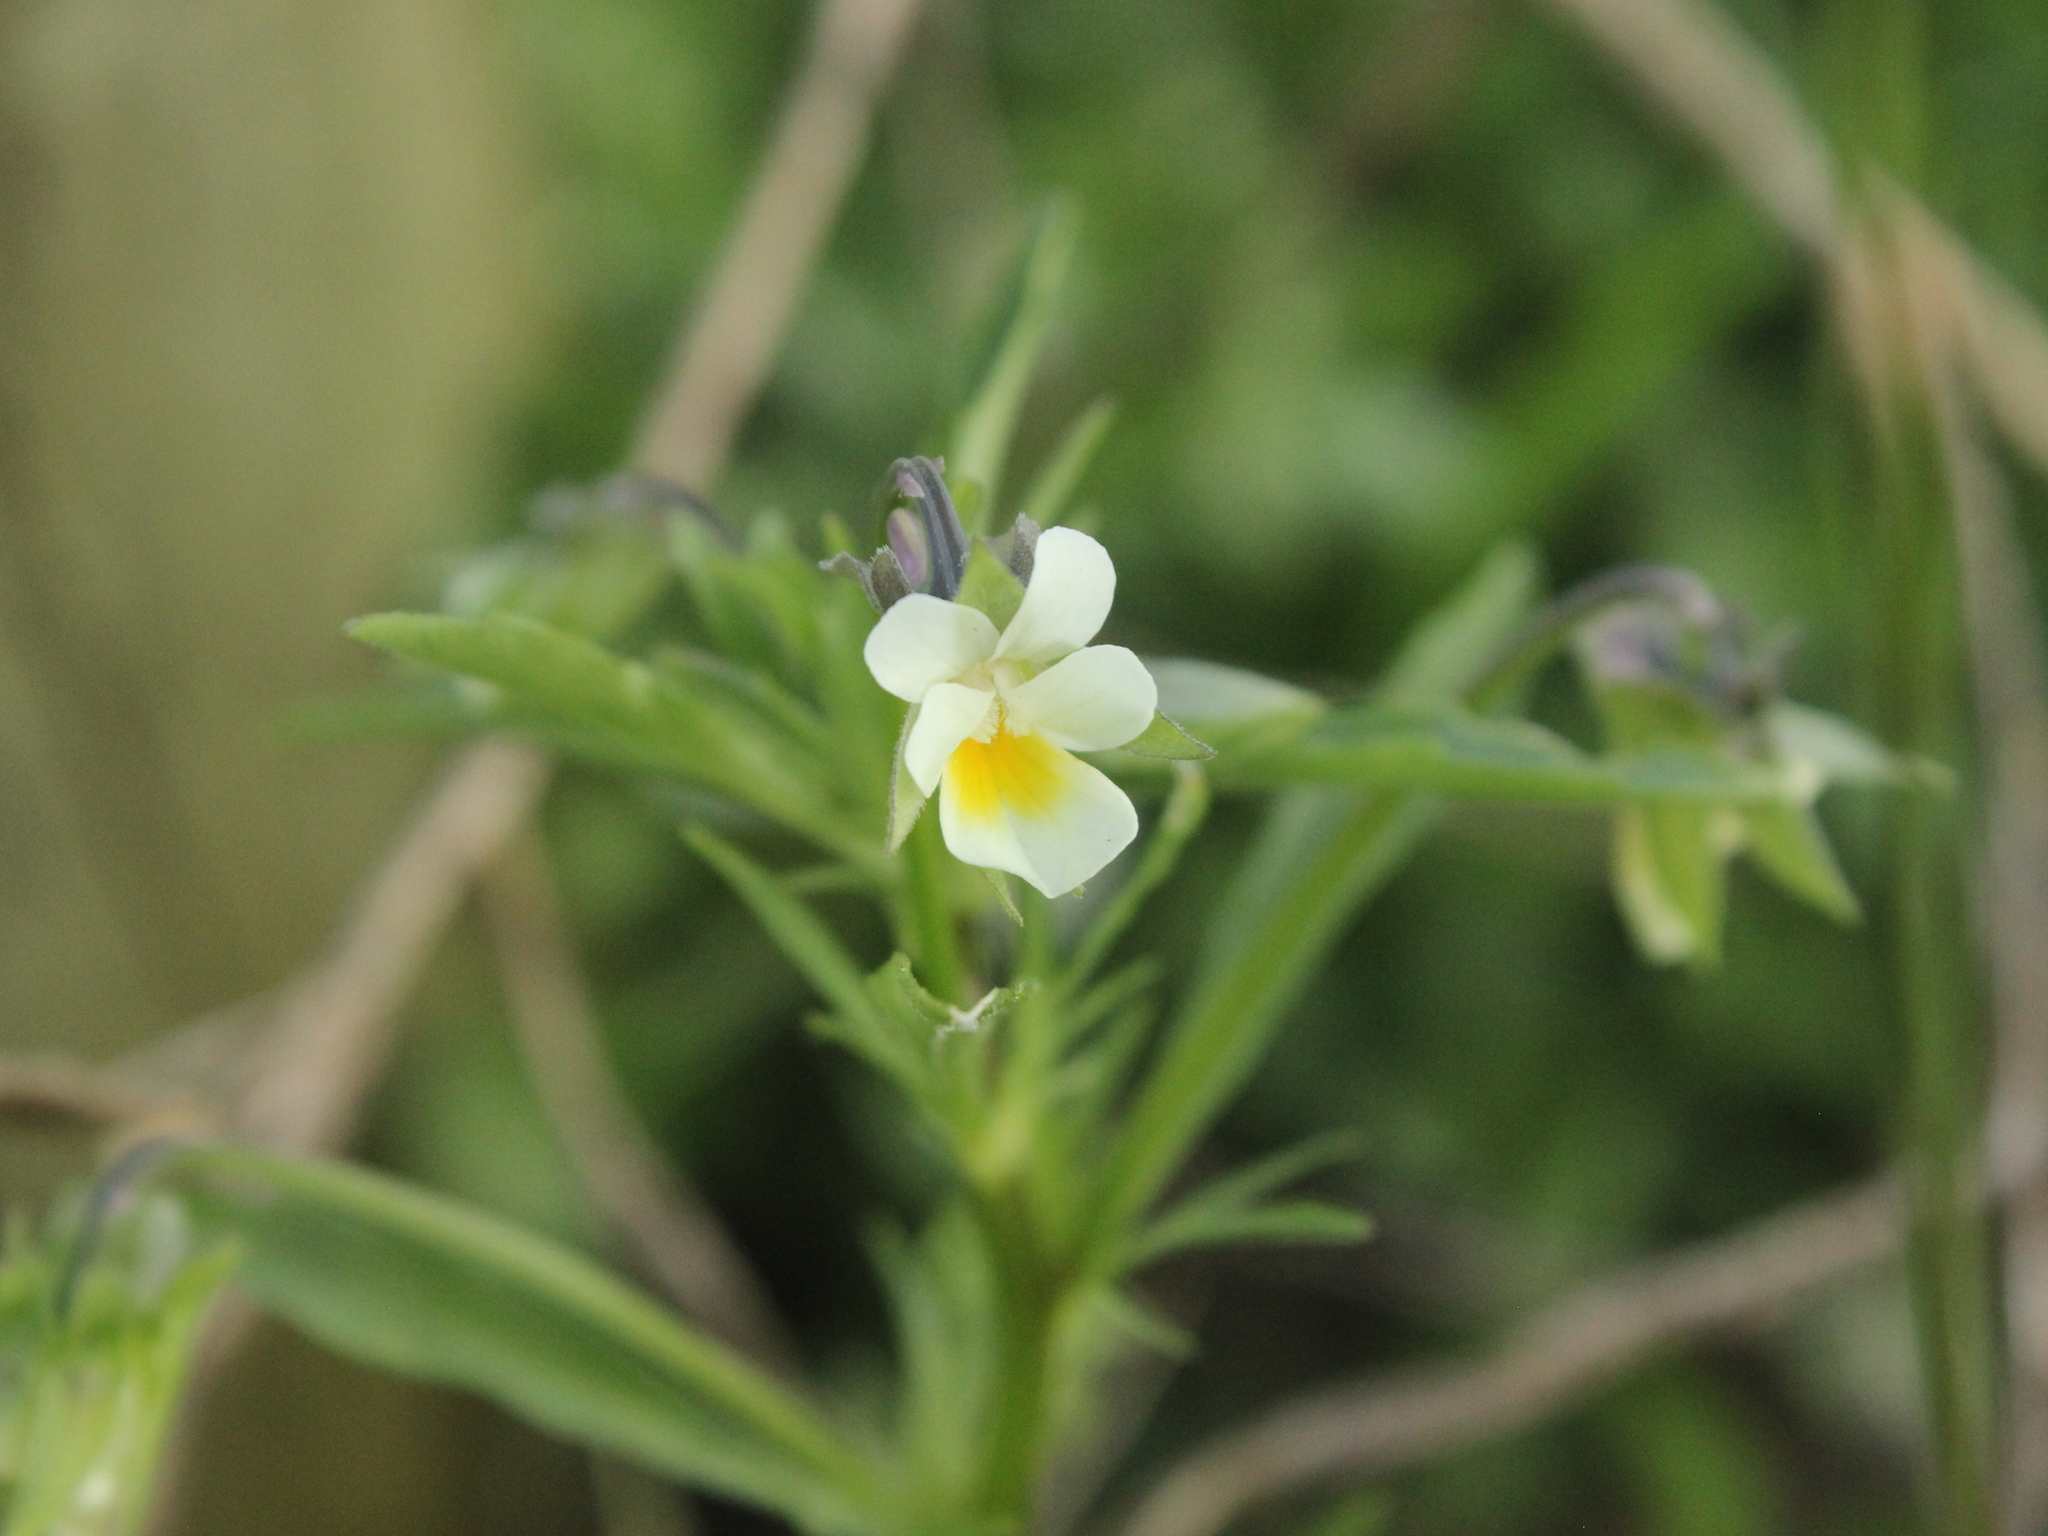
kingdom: Plantae
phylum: Tracheophyta
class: Magnoliopsida
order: Malpighiales
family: Violaceae
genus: Viola
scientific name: Viola arvensis
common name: Field pansy
